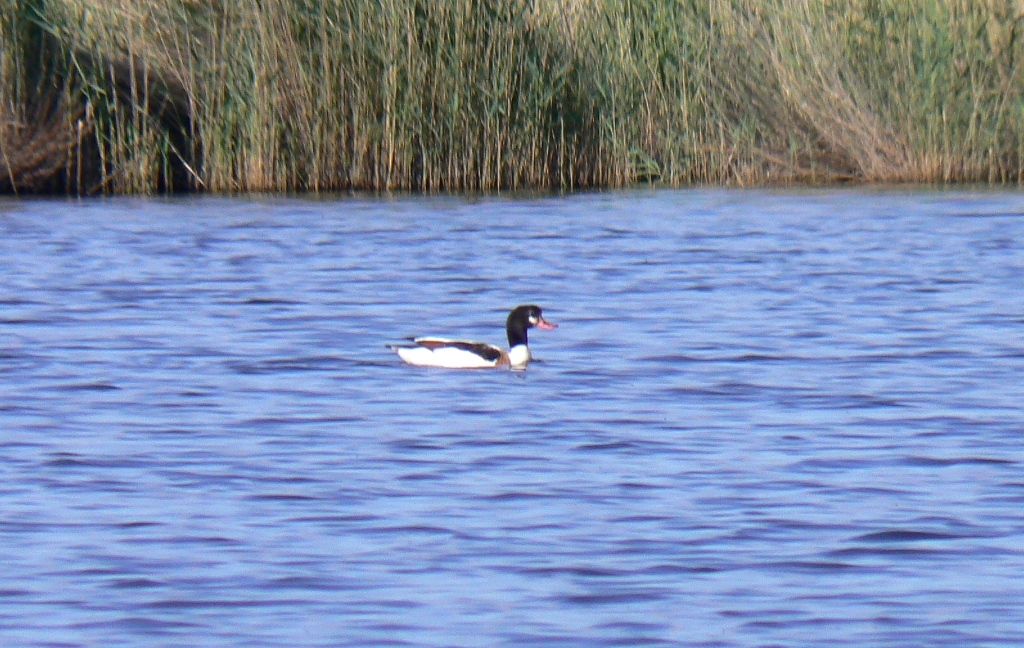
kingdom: Animalia
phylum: Chordata
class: Aves
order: Anseriformes
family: Anatidae
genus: Tadorna
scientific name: Tadorna tadorna
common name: Common shelduck
